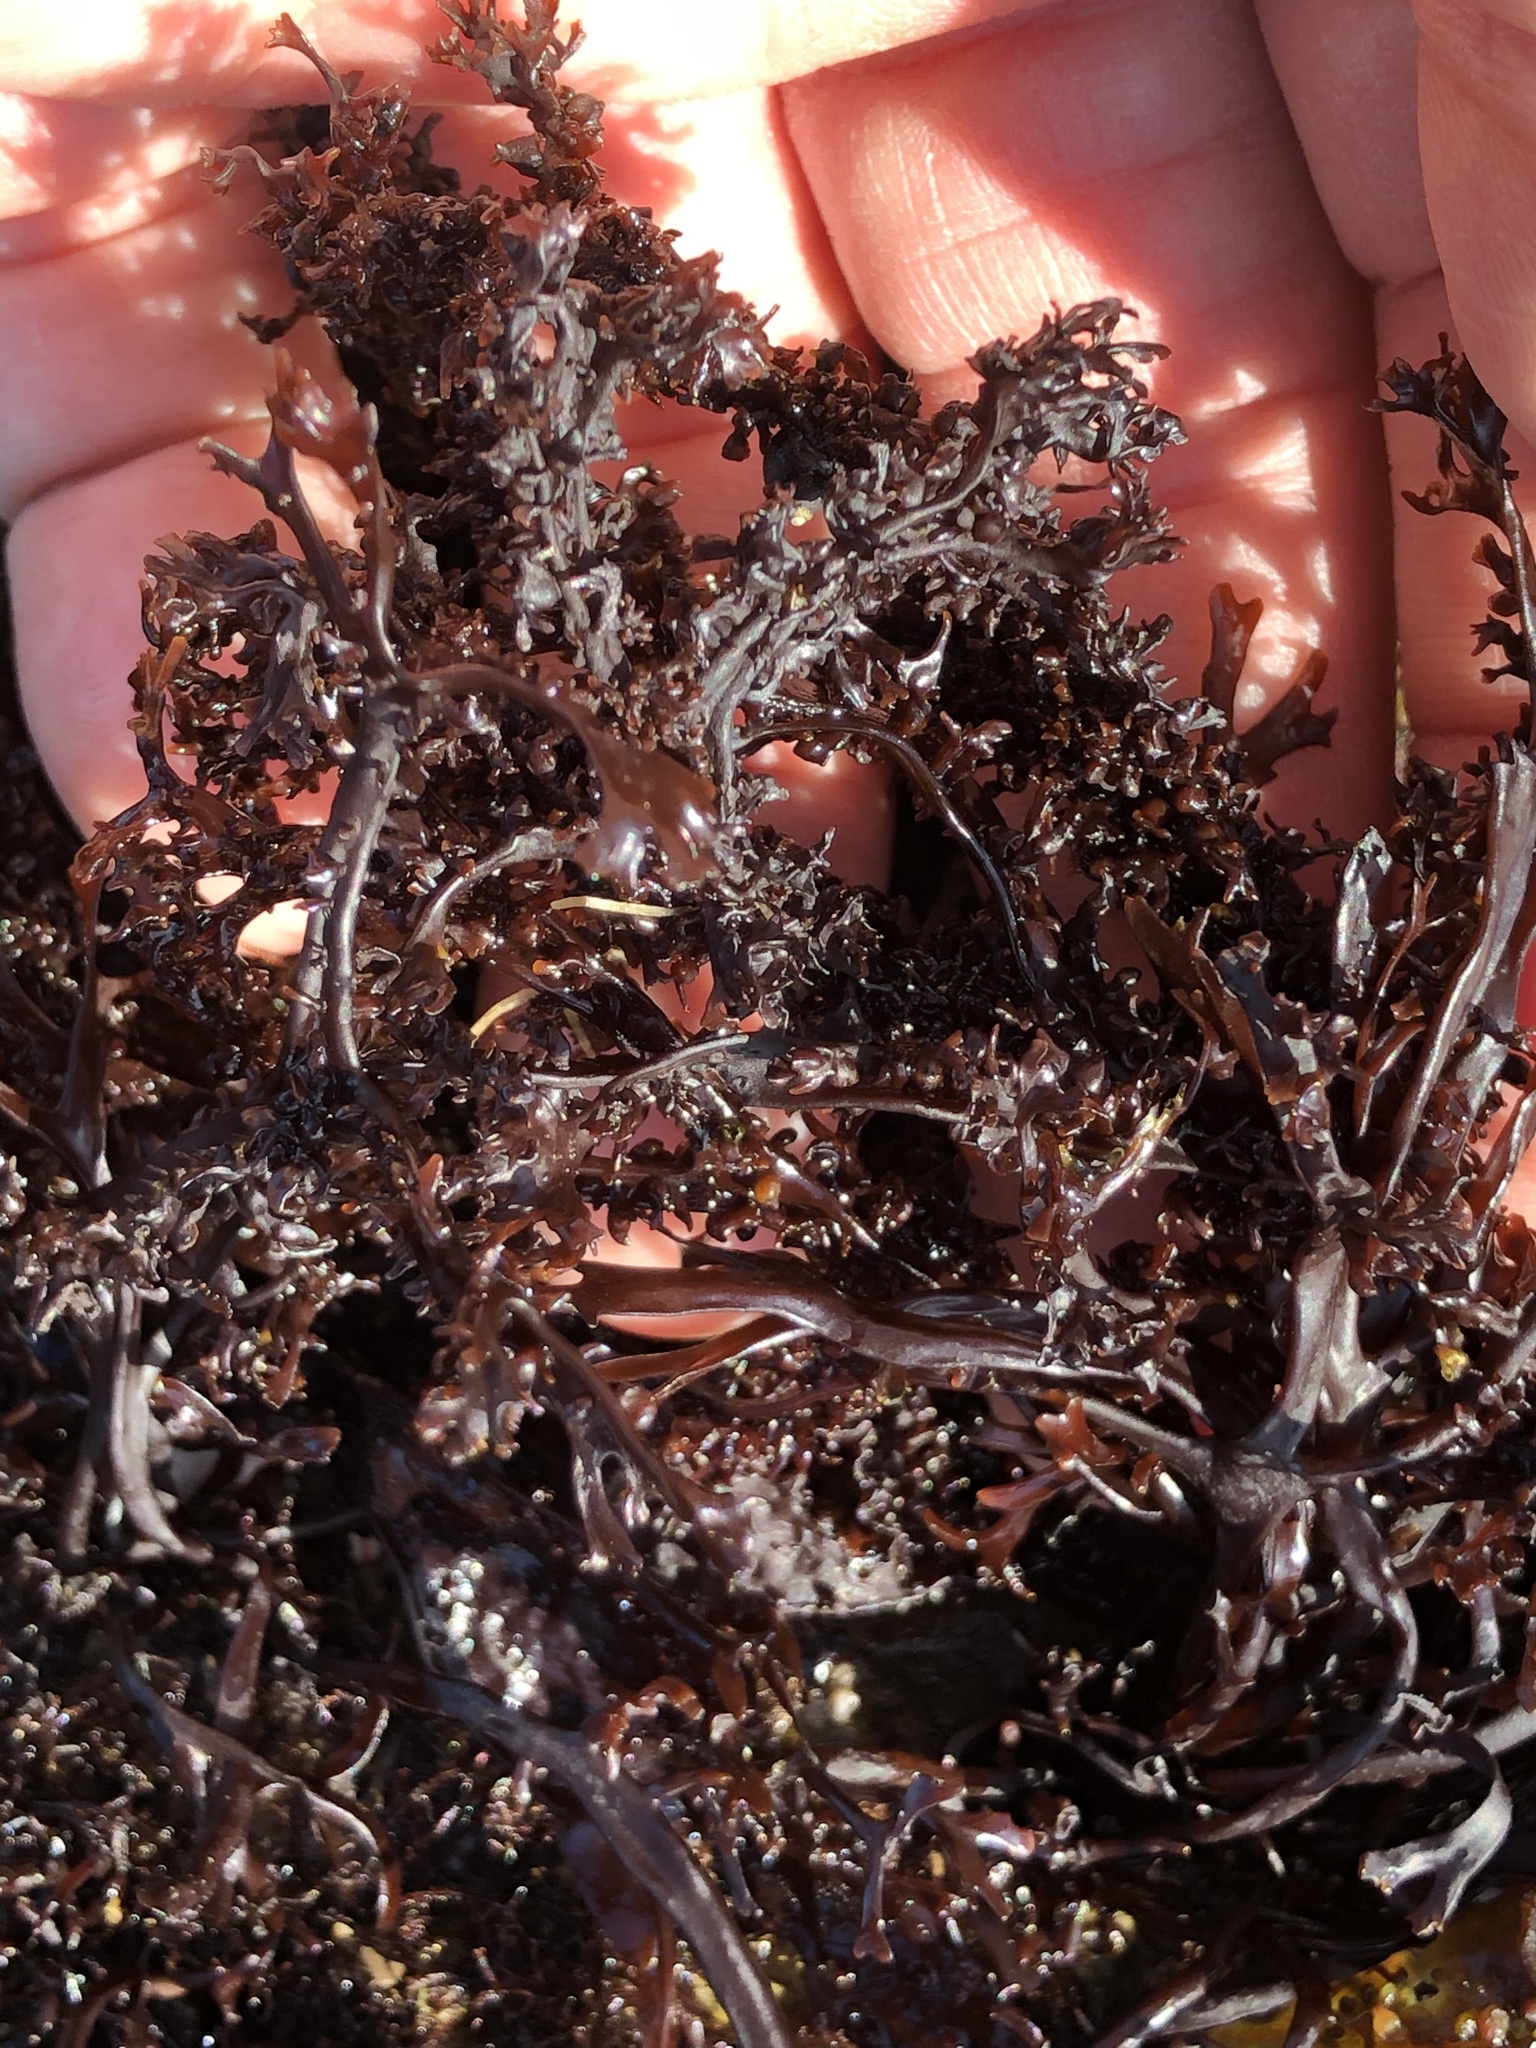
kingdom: Plantae
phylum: Rhodophyta
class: Florideophyceae
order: Gigartinales
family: Phyllophoraceae
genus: Mastocarpus
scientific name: Mastocarpus jardinii
